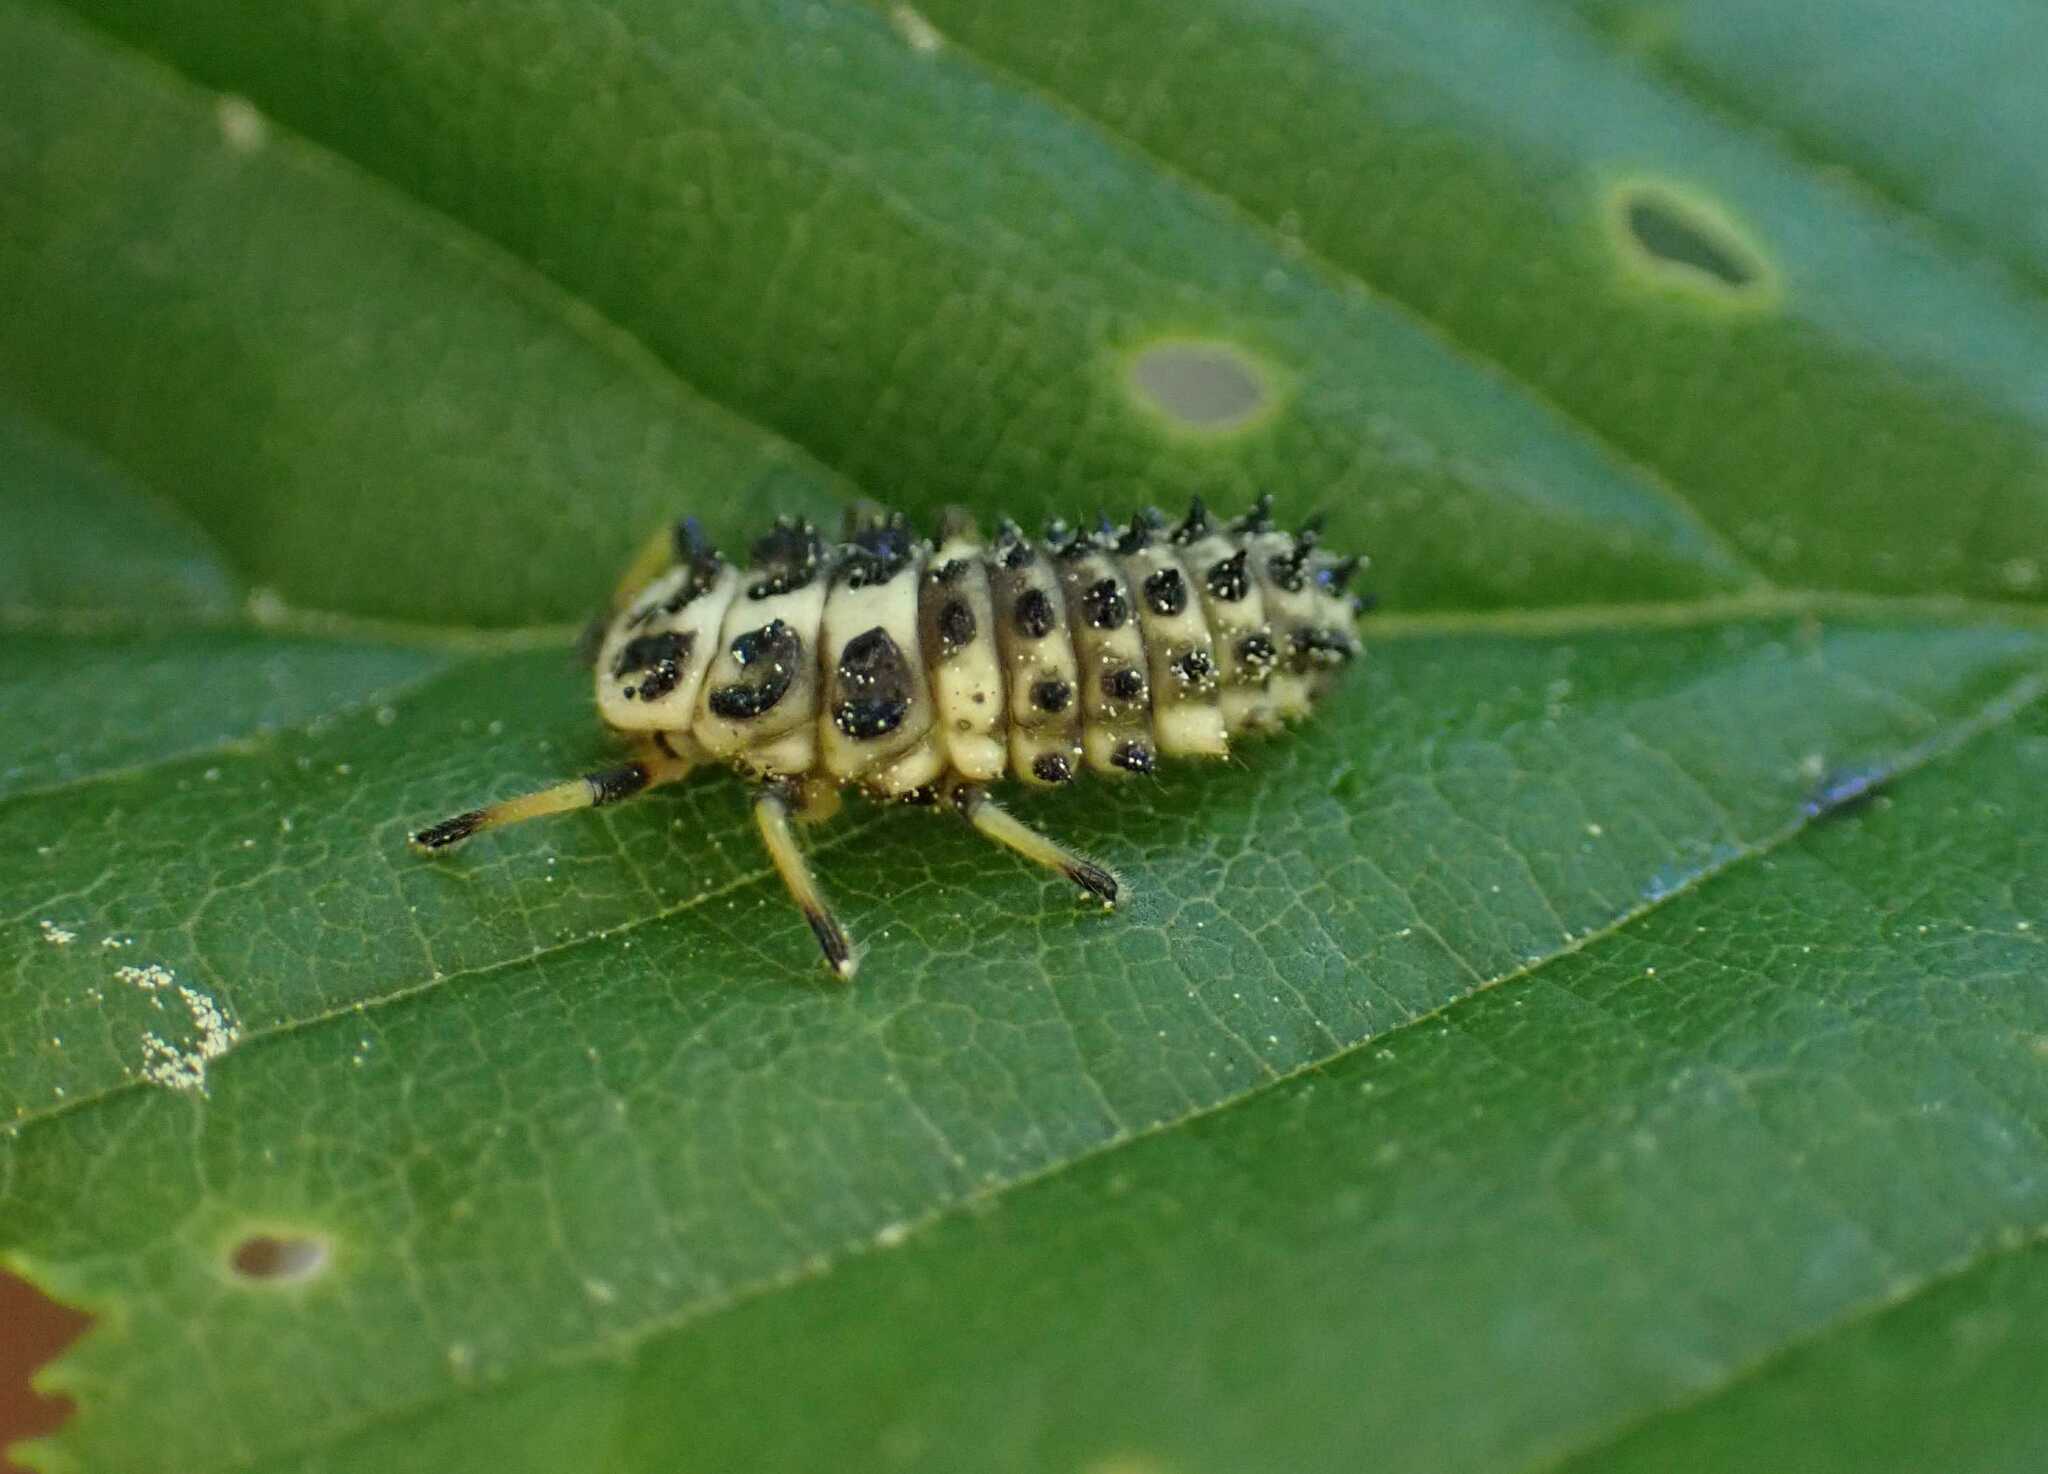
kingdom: Animalia
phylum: Arthropoda
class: Insecta
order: Coleoptera
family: Coccinellidae
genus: Sospita
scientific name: Sospita vigintiguttata
